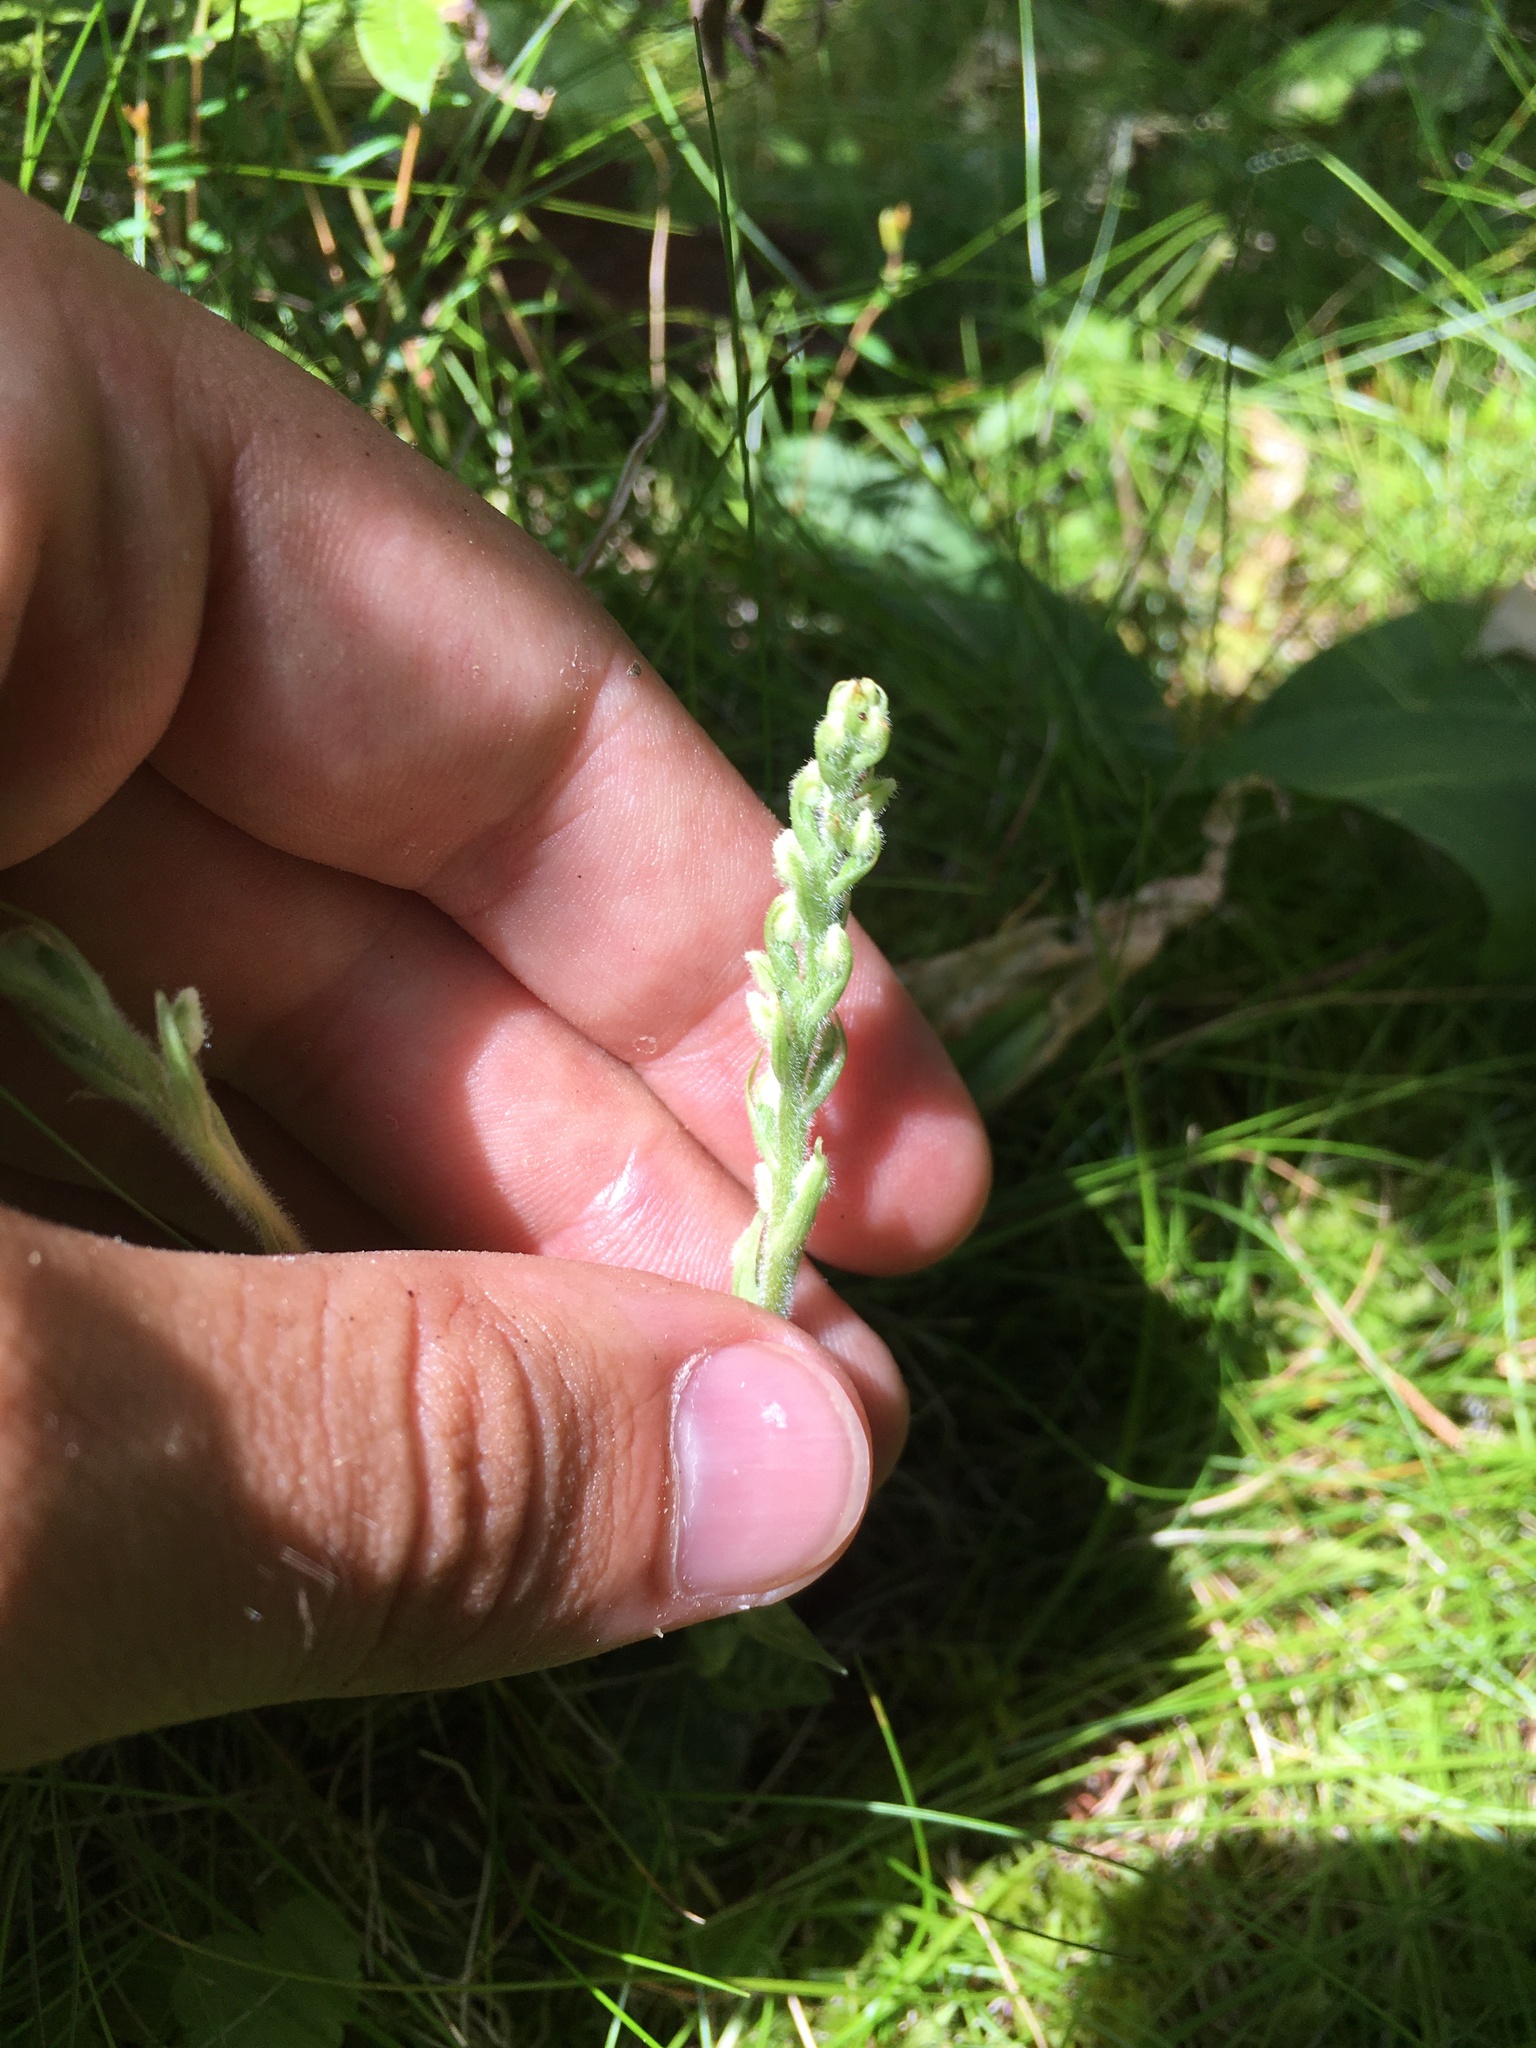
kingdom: Plantae
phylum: Tracheophyta
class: Liliopsida
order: Asparagales
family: Orchidaceae
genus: Goodyera
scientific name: Goodyera repens
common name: Creeping lady's-tresses
